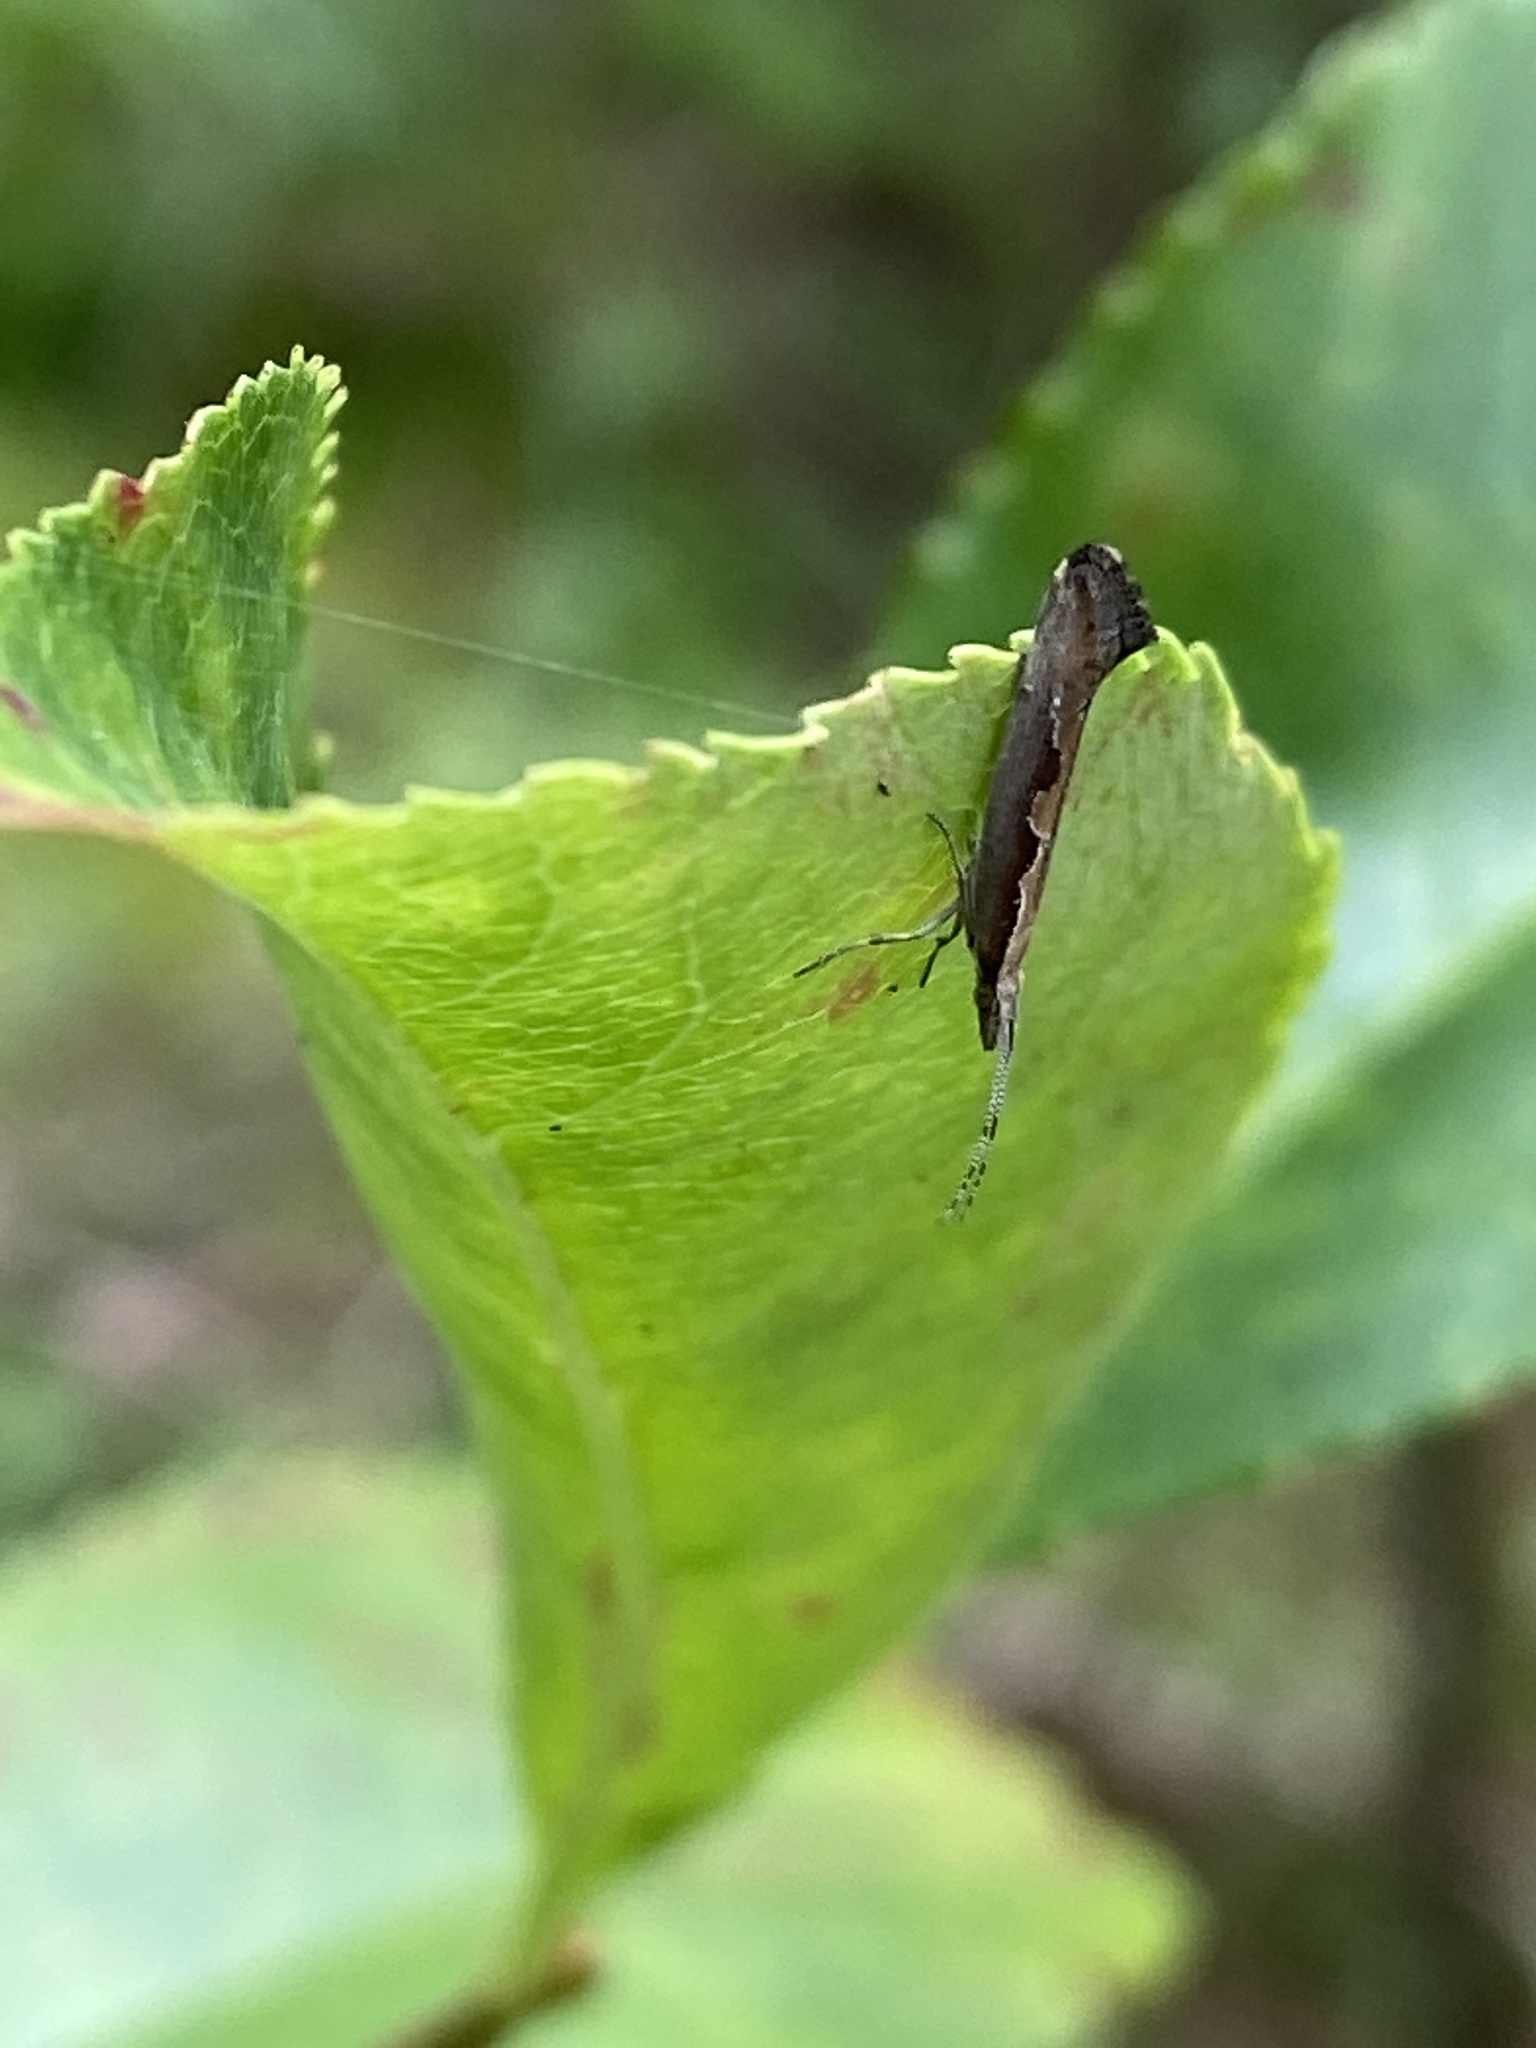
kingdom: Animalia
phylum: Arthropoda
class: Insecta
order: Lepidoptera
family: Plutellidae
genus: Plutella
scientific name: Plutella xylostella
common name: Diamond-back moth
